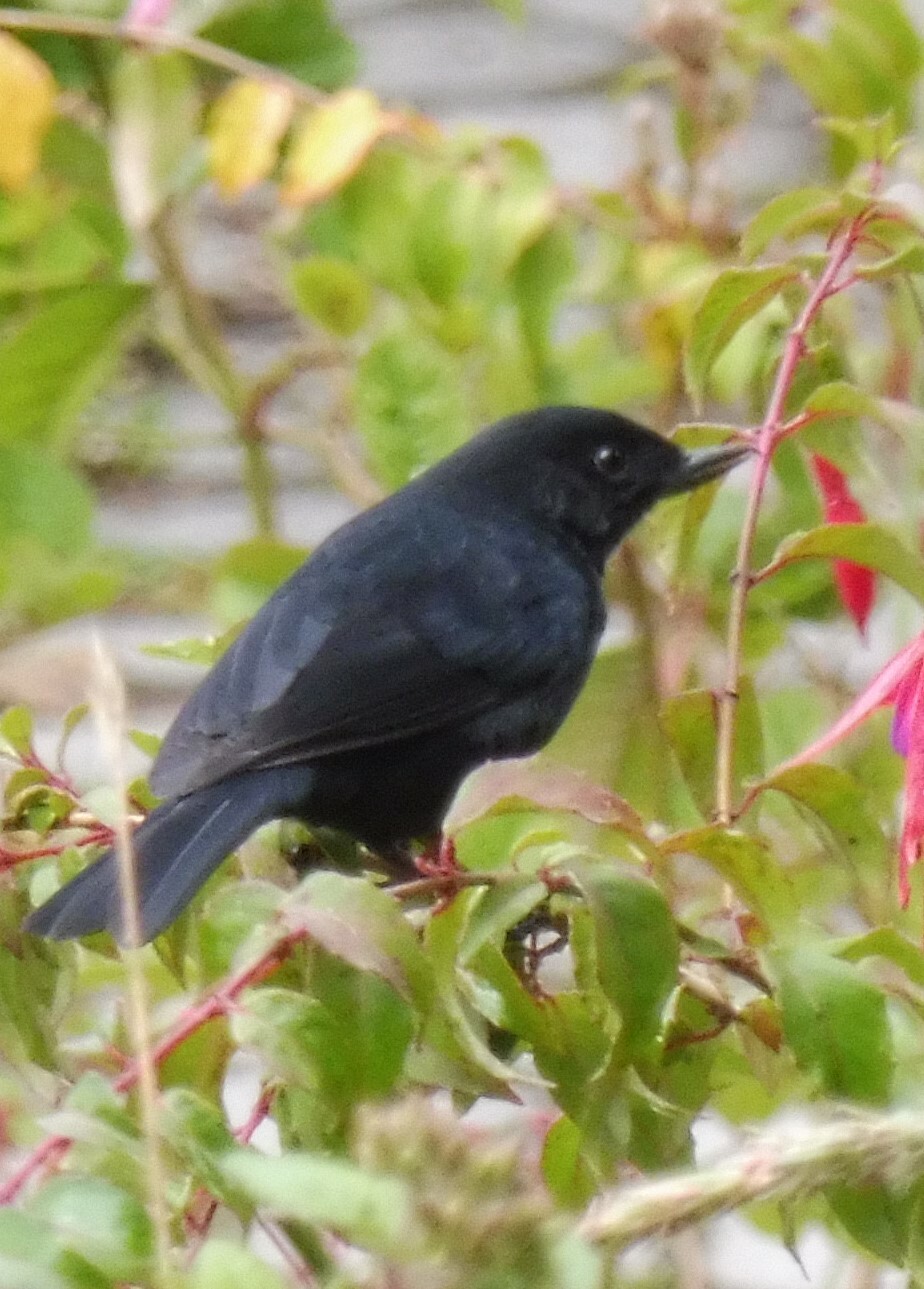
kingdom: Animalia
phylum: Chordata
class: Aves
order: Passeriformes
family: Thraupidae
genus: Diglossa
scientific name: Diglossa humeralis
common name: Black flowerpiercer
